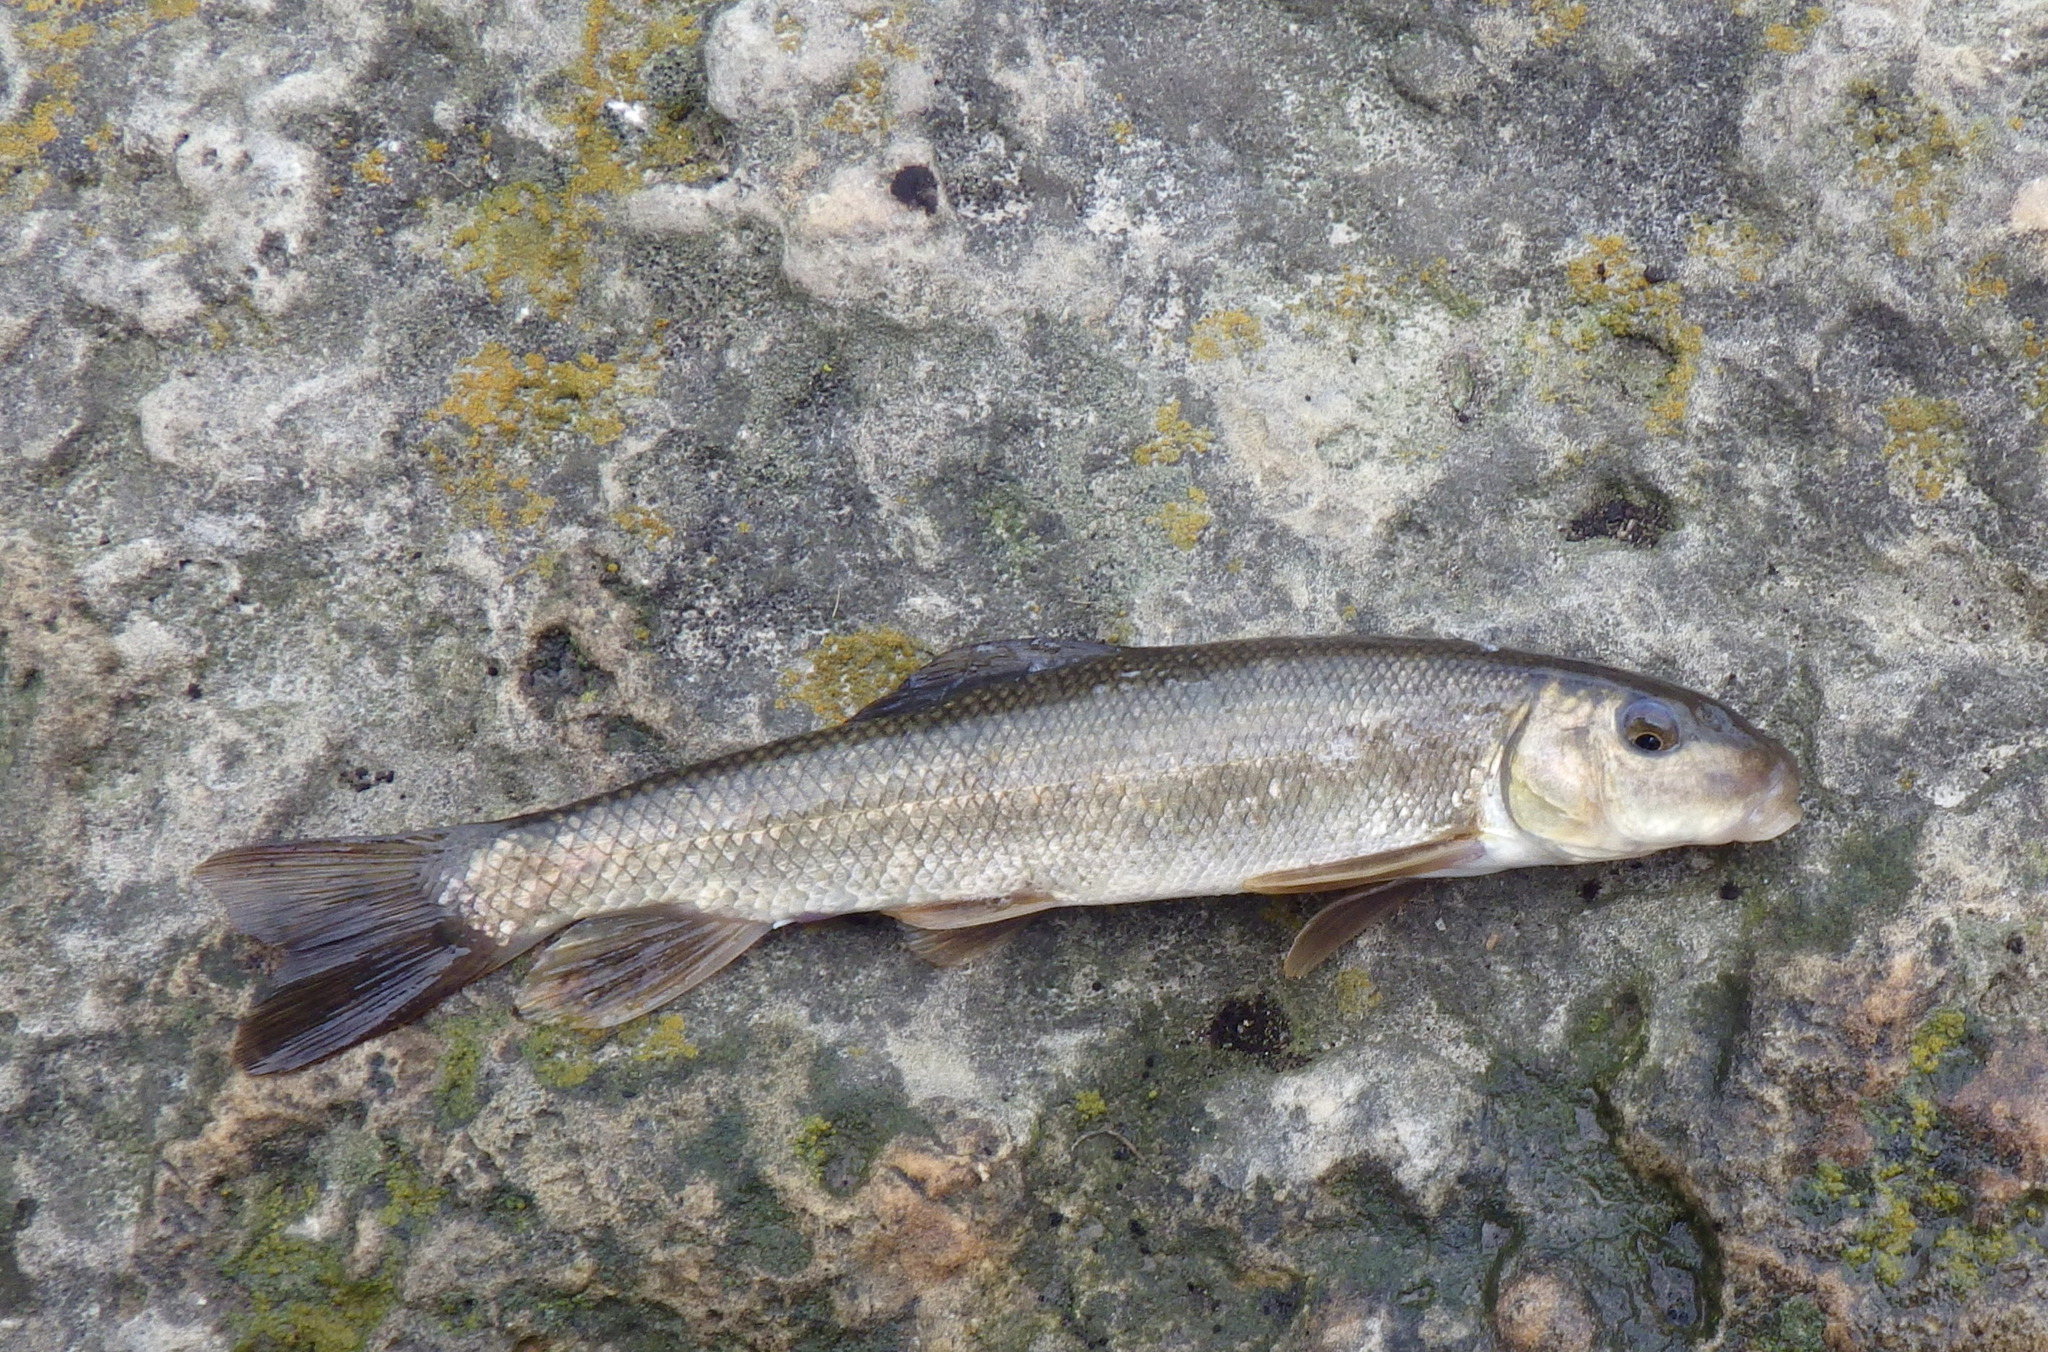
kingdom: Animalia
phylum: Chordata
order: Cypriniformes
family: Catostomidae
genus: Catostomus
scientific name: Catostomus commersonii
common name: White sucker
